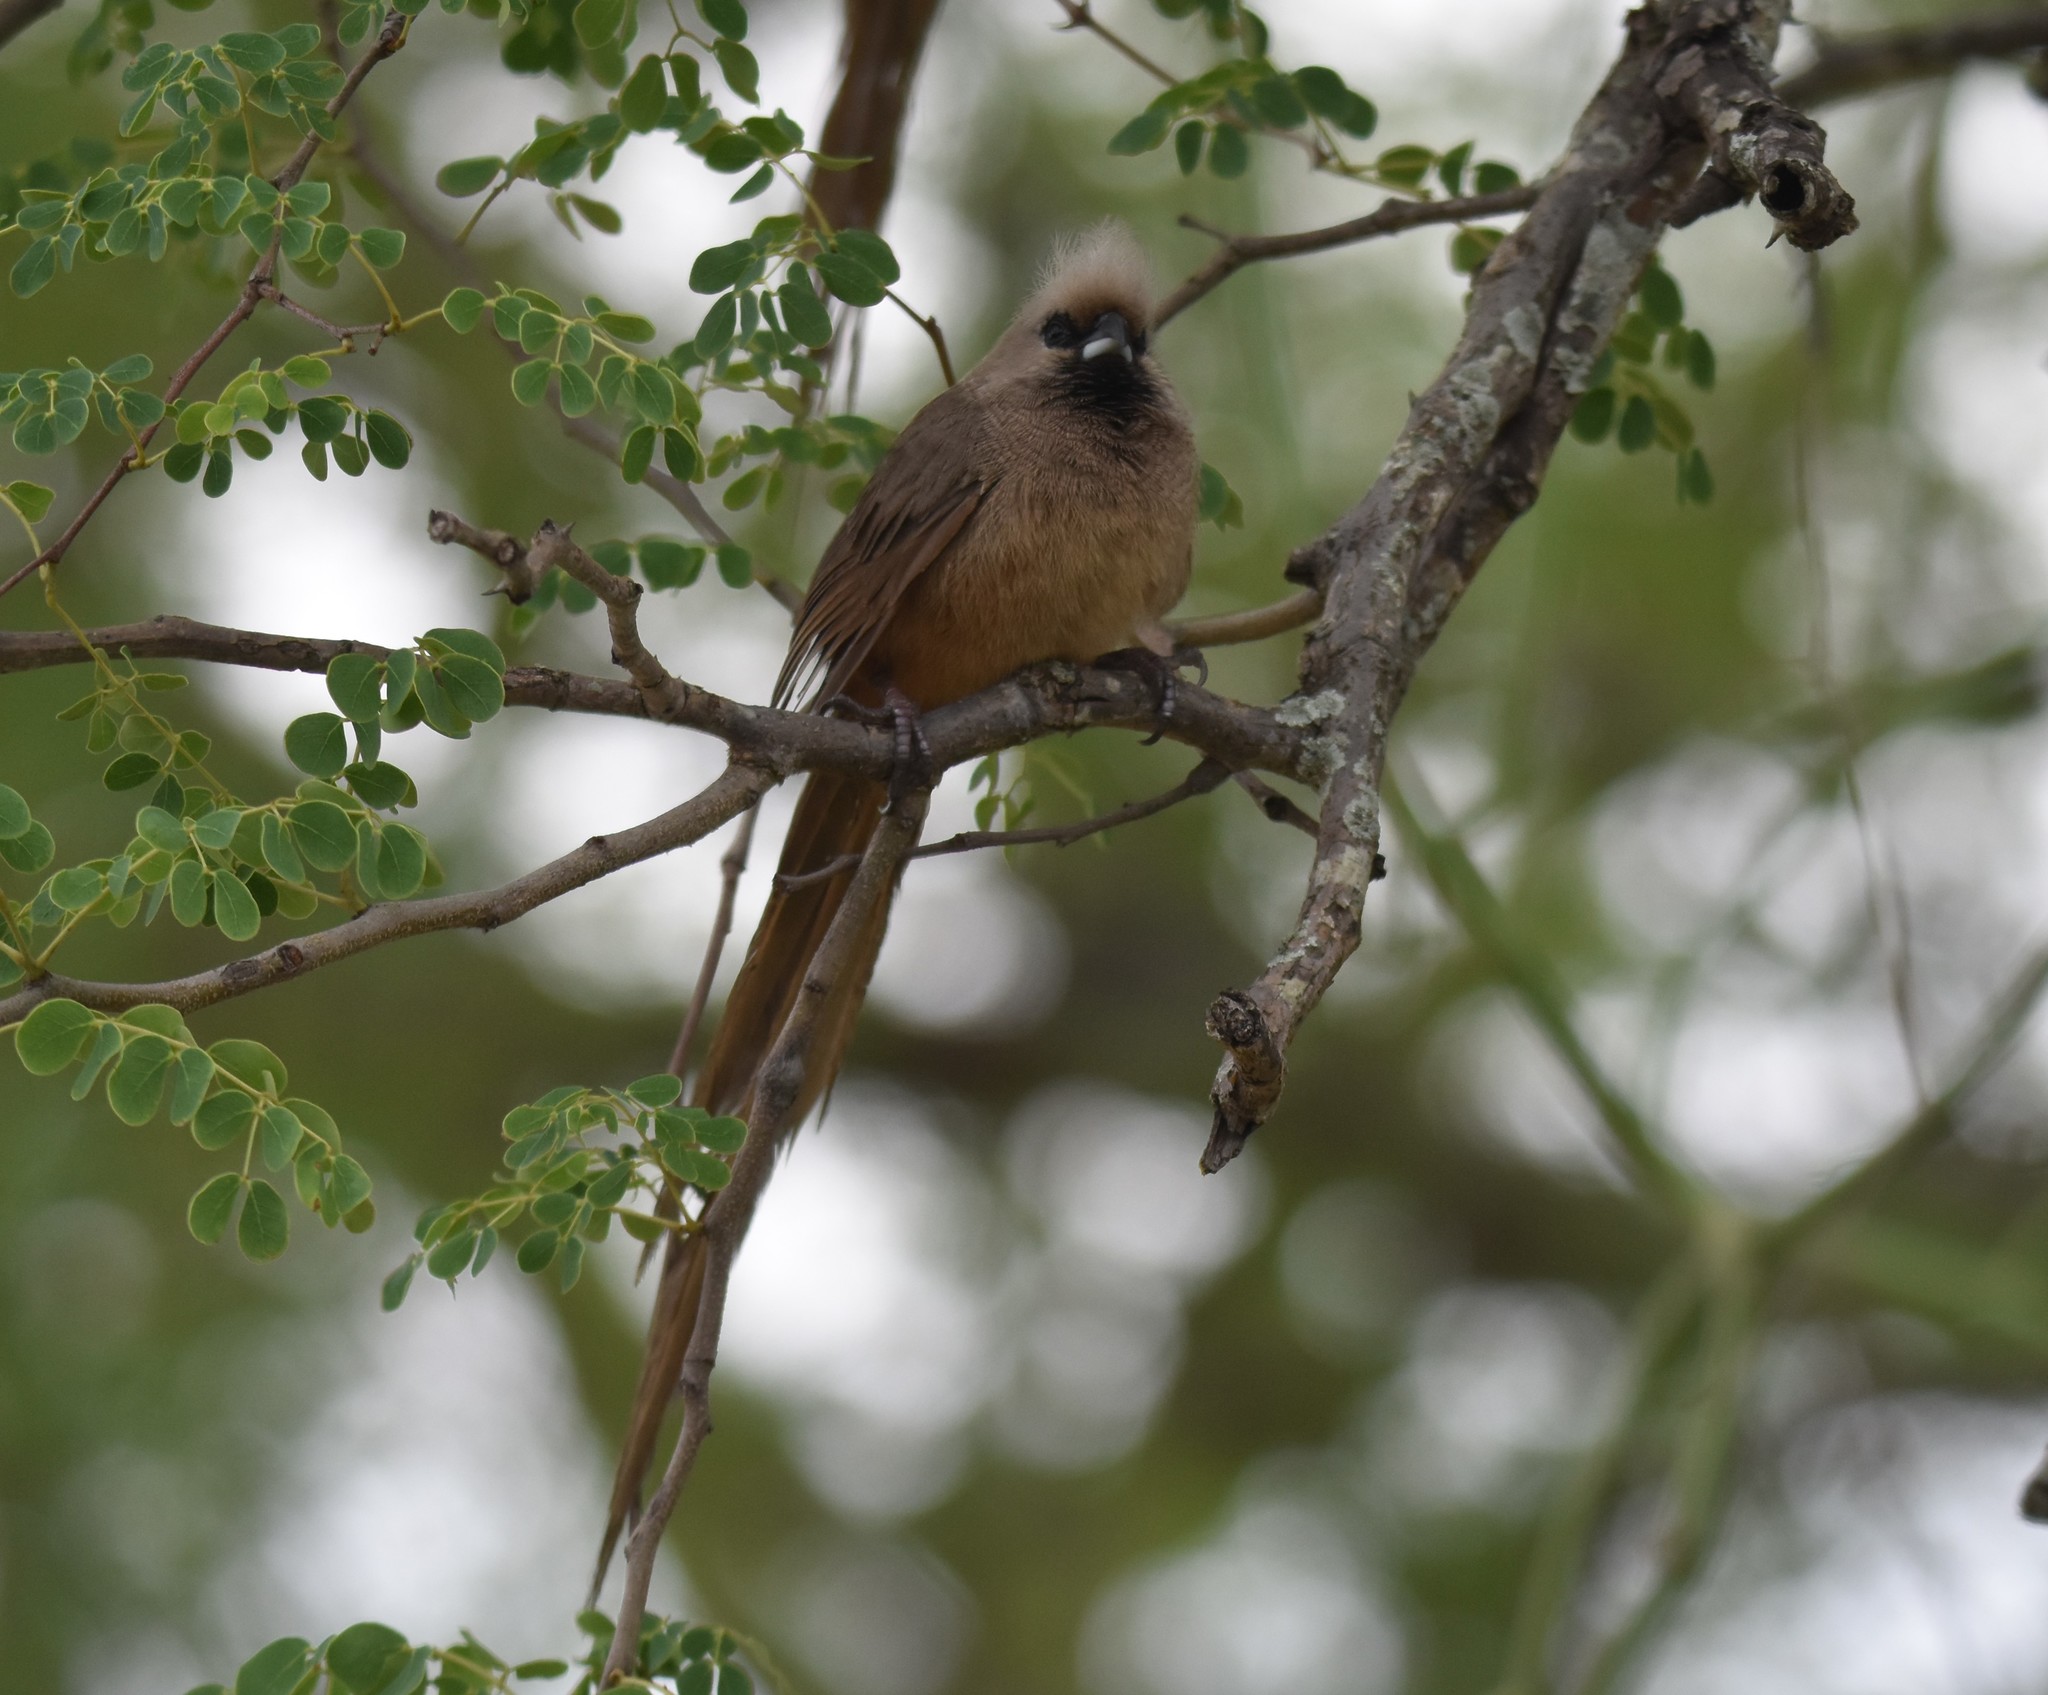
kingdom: Animalia
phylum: Chordata
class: Aves
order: Coliiformes
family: Coliidae
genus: Colius
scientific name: Colius striatus
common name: Speckled mousebird
